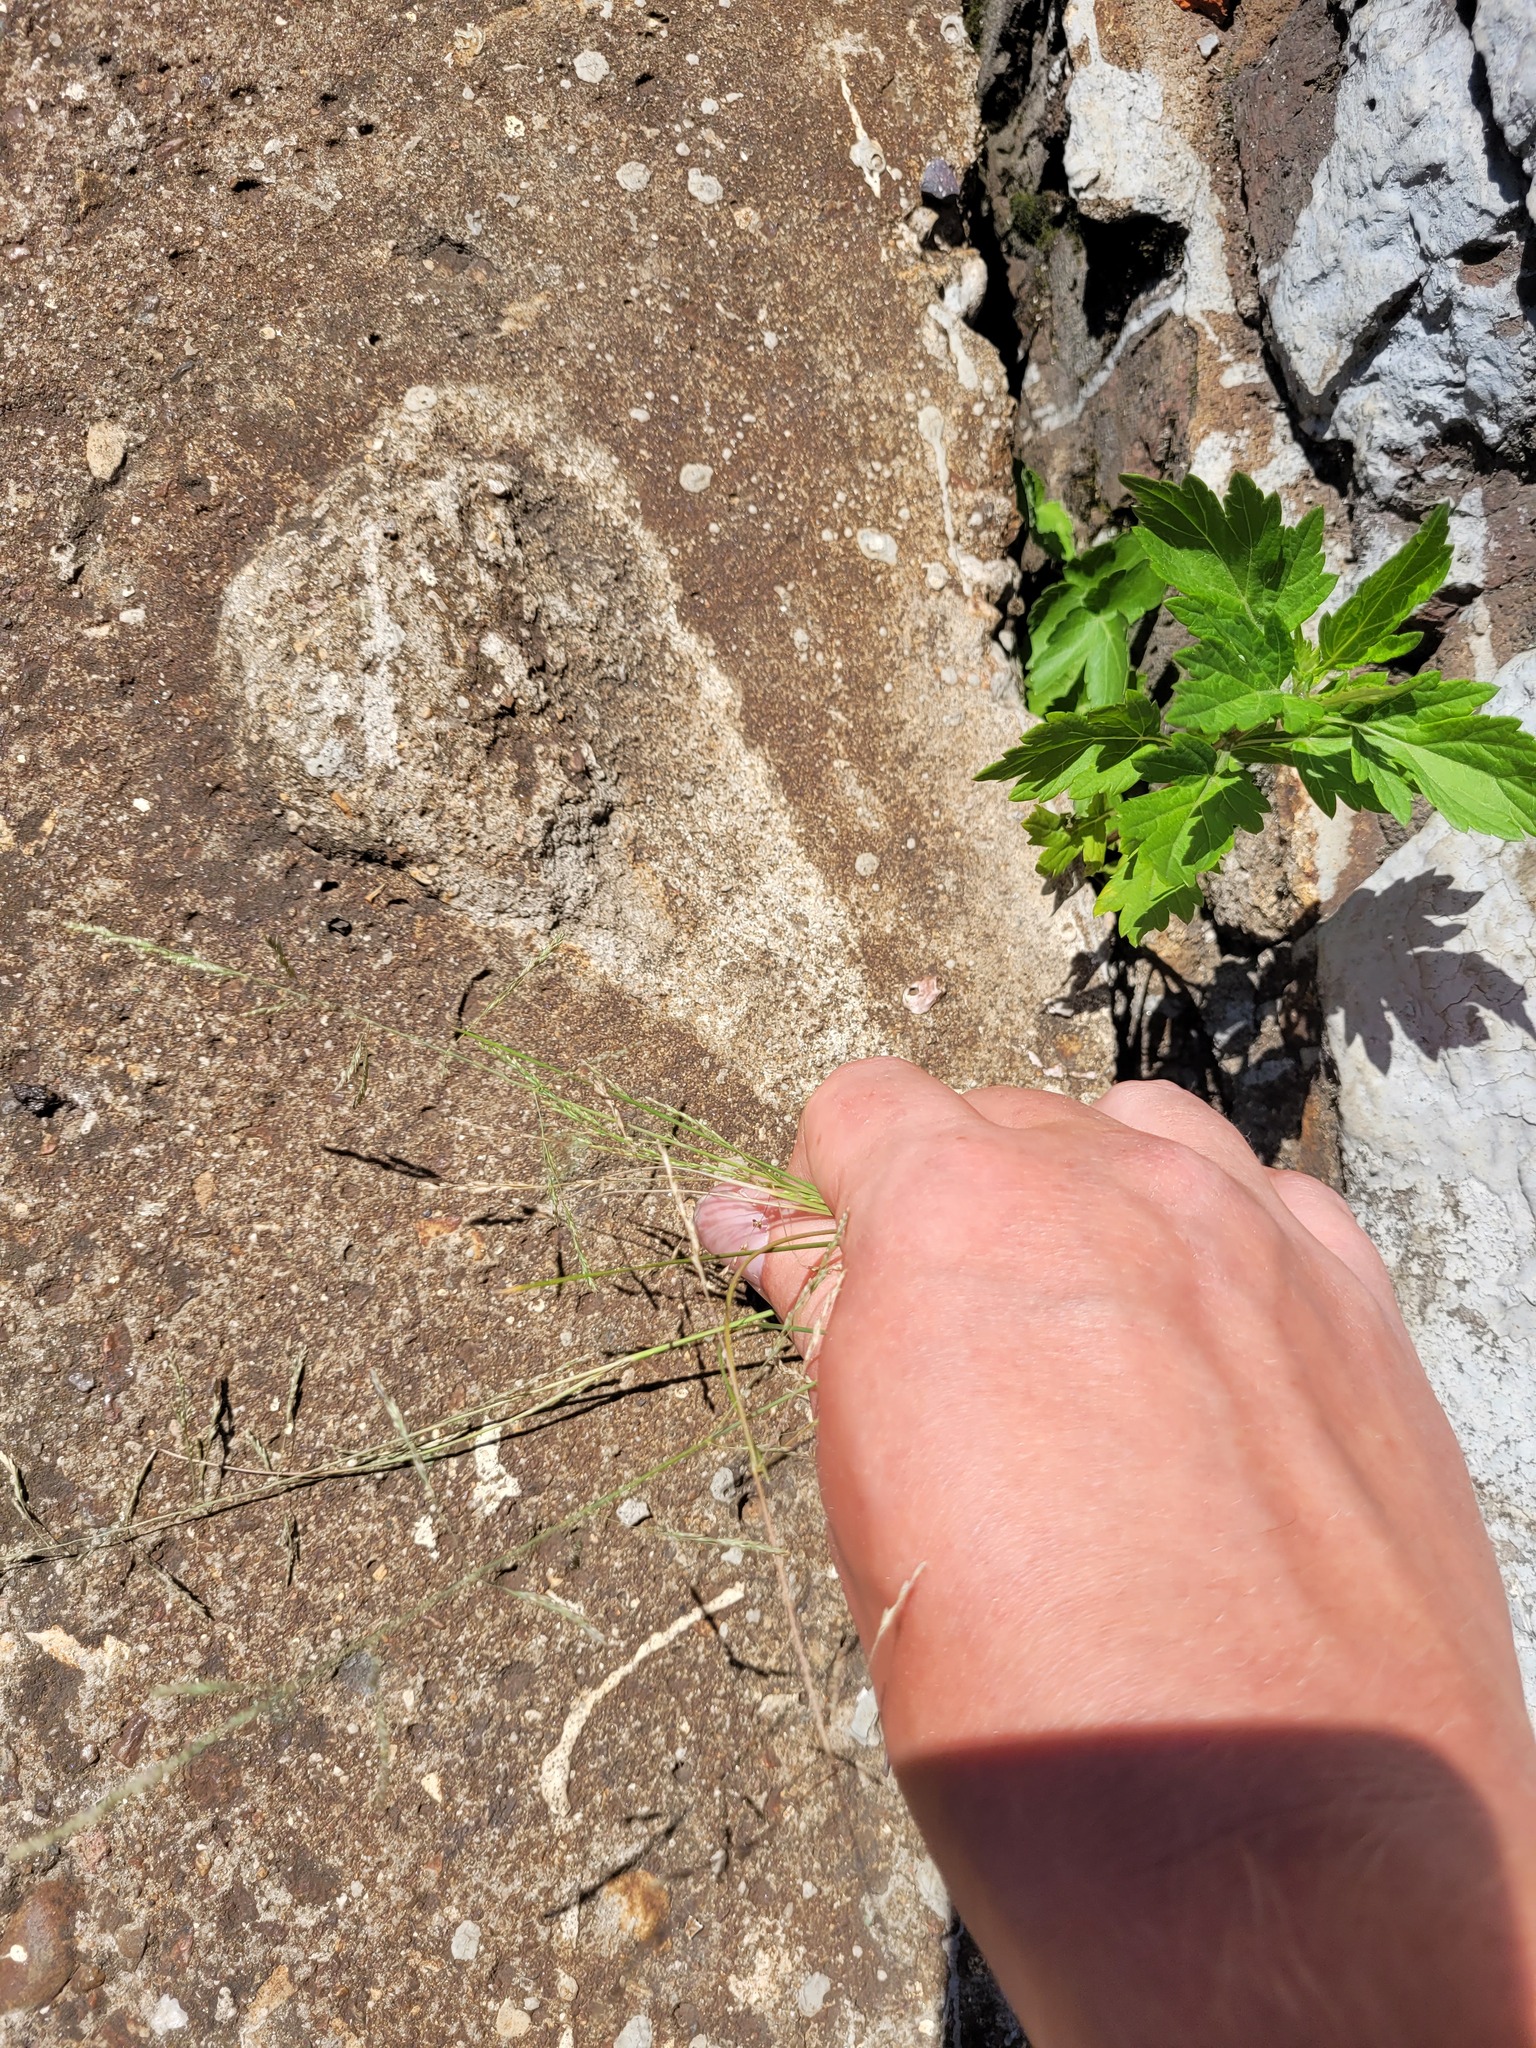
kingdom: Plantae
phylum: Tracheophyta
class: Liliopsida
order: Poales
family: Poaceae
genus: Puccinellia
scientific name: Puccinellia distans
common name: Weeping alkaligrass
